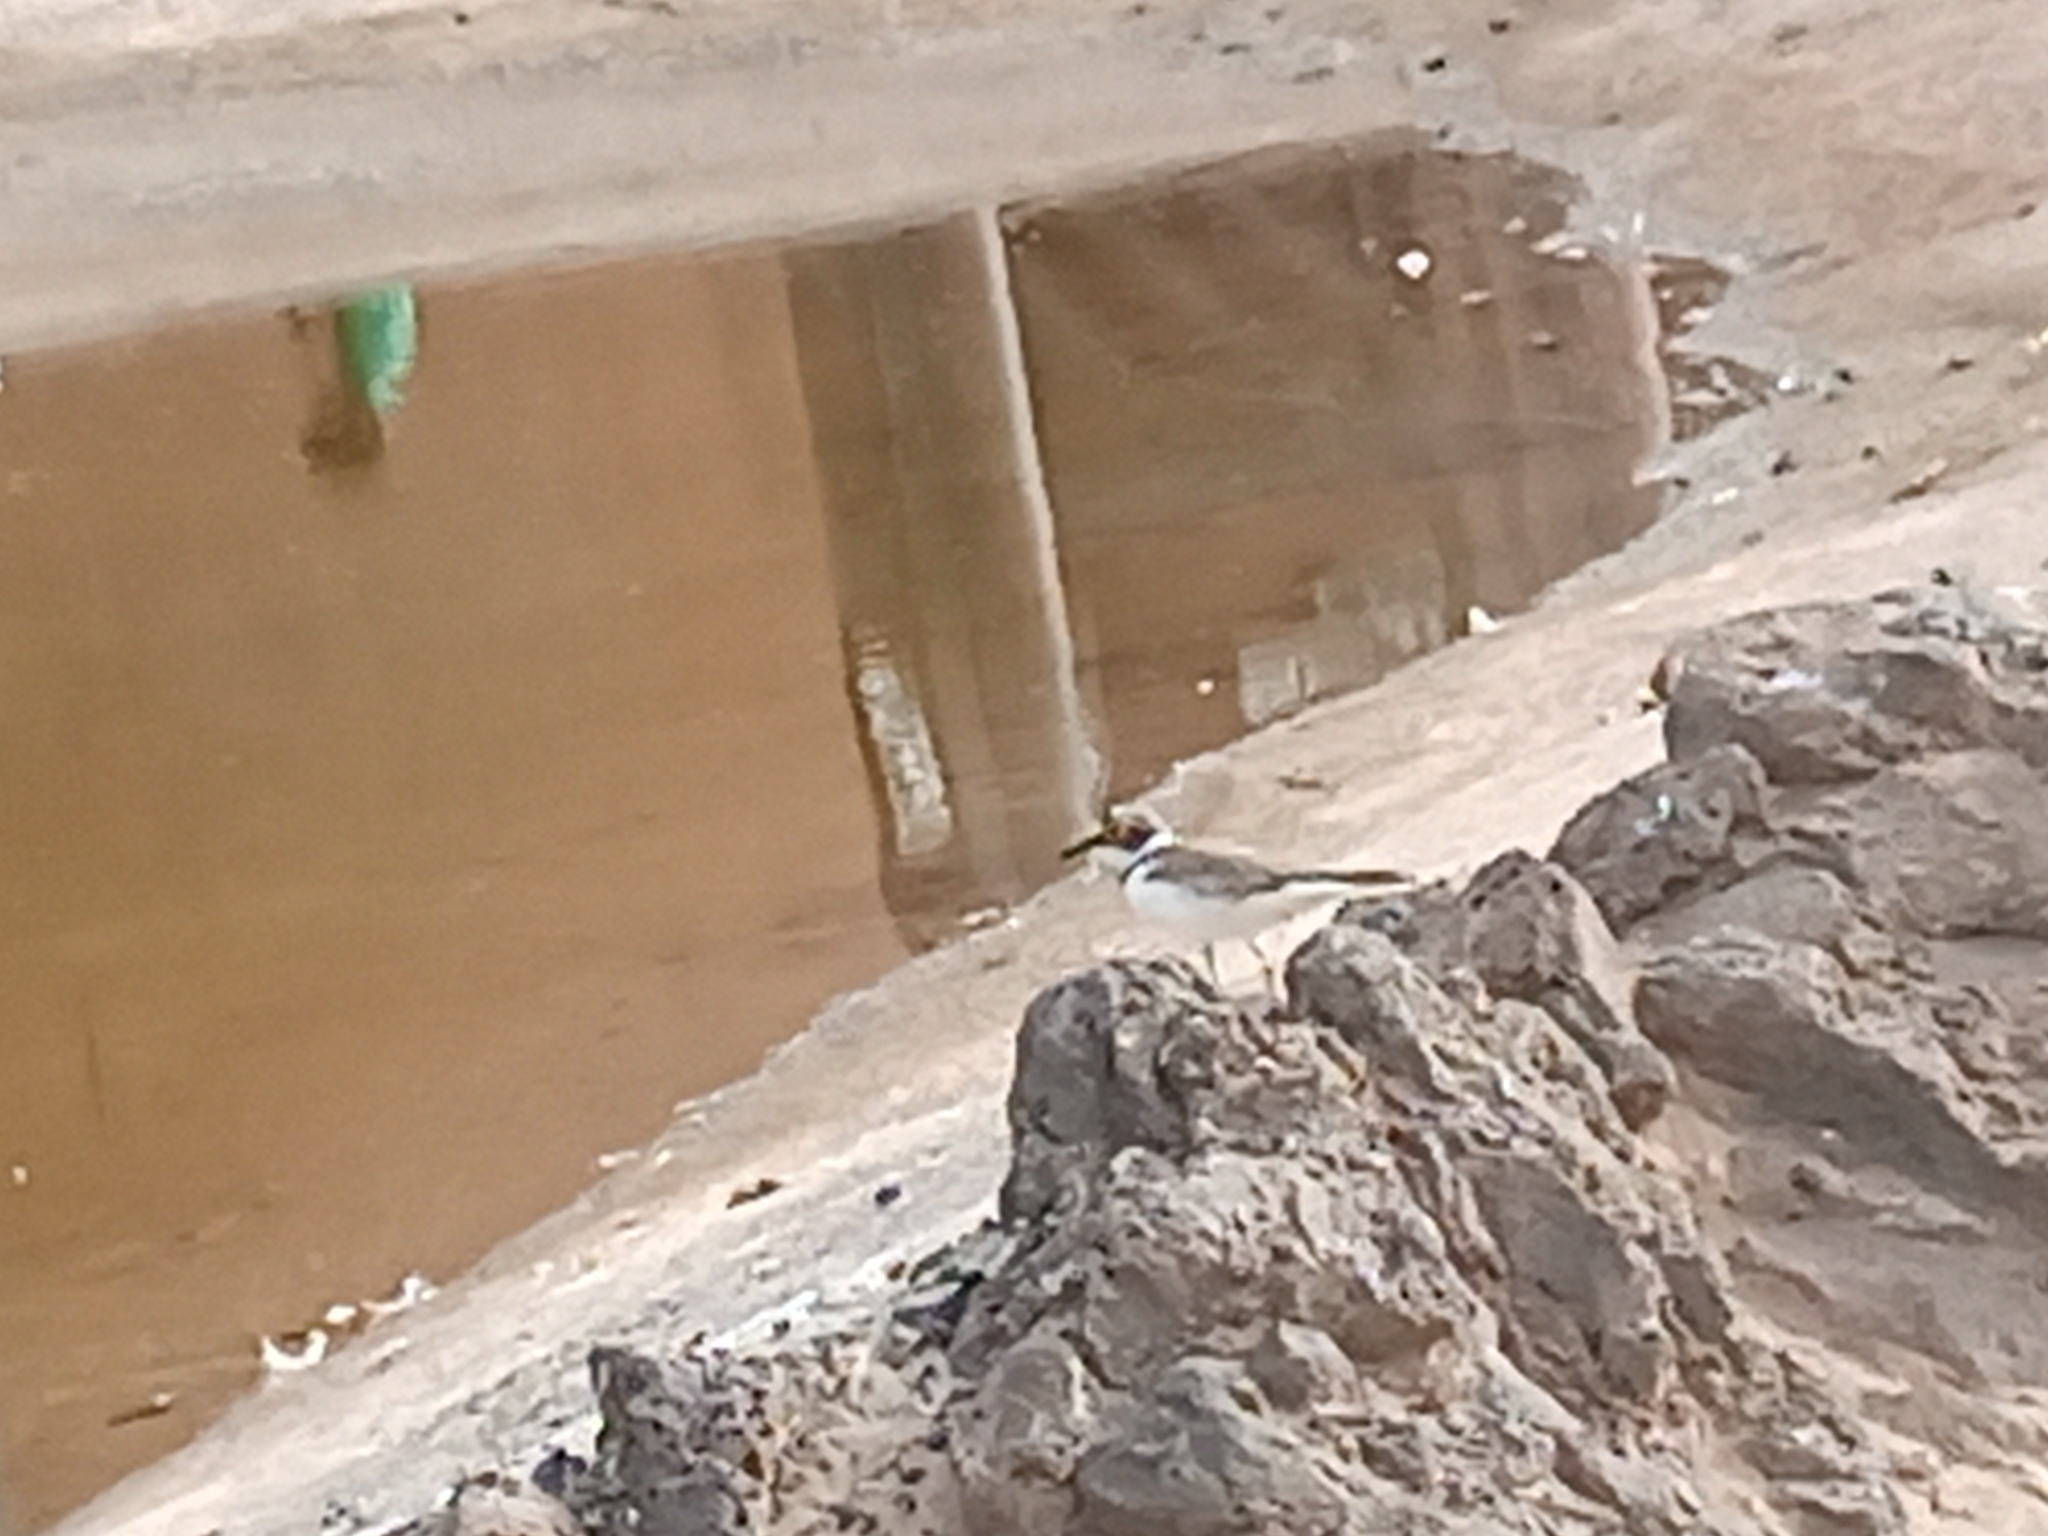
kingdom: Animalia
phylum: Chordata
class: Aves
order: Charadriiformes
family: Charadriidae
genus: Charadrius
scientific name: Charadrius dubius
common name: Little ringed plover
